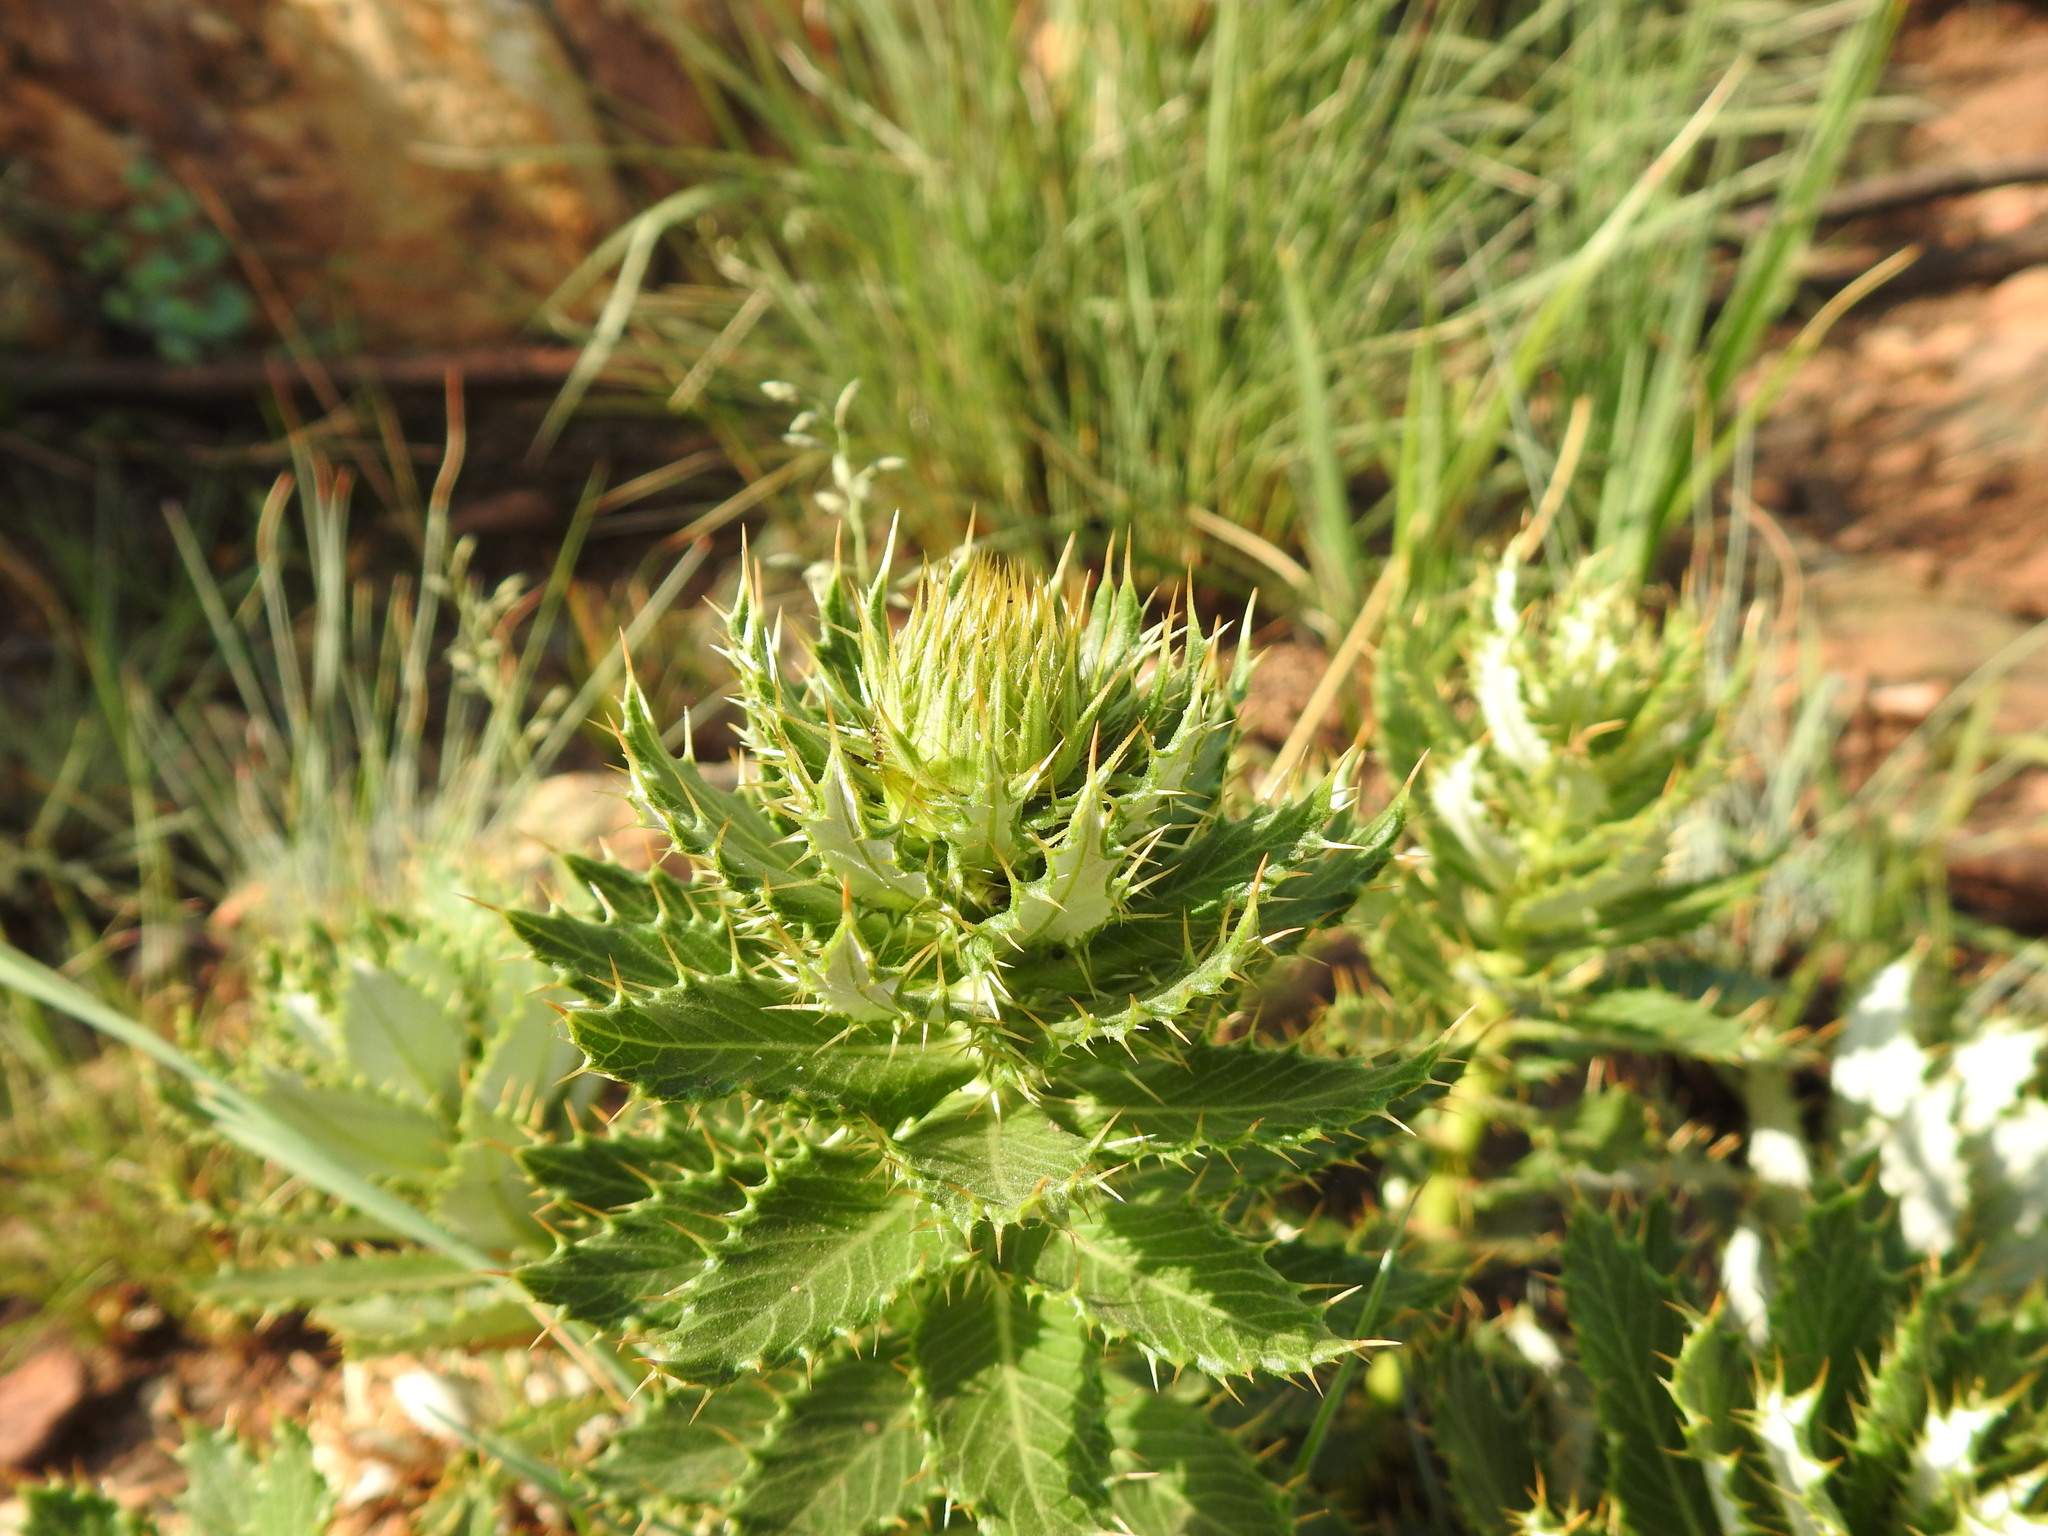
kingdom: Plantae
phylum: Tracheophyta
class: Magnoliopsida
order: Asterales
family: Asteraceae
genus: Berkheya
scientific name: Berkheya carlinopsis
